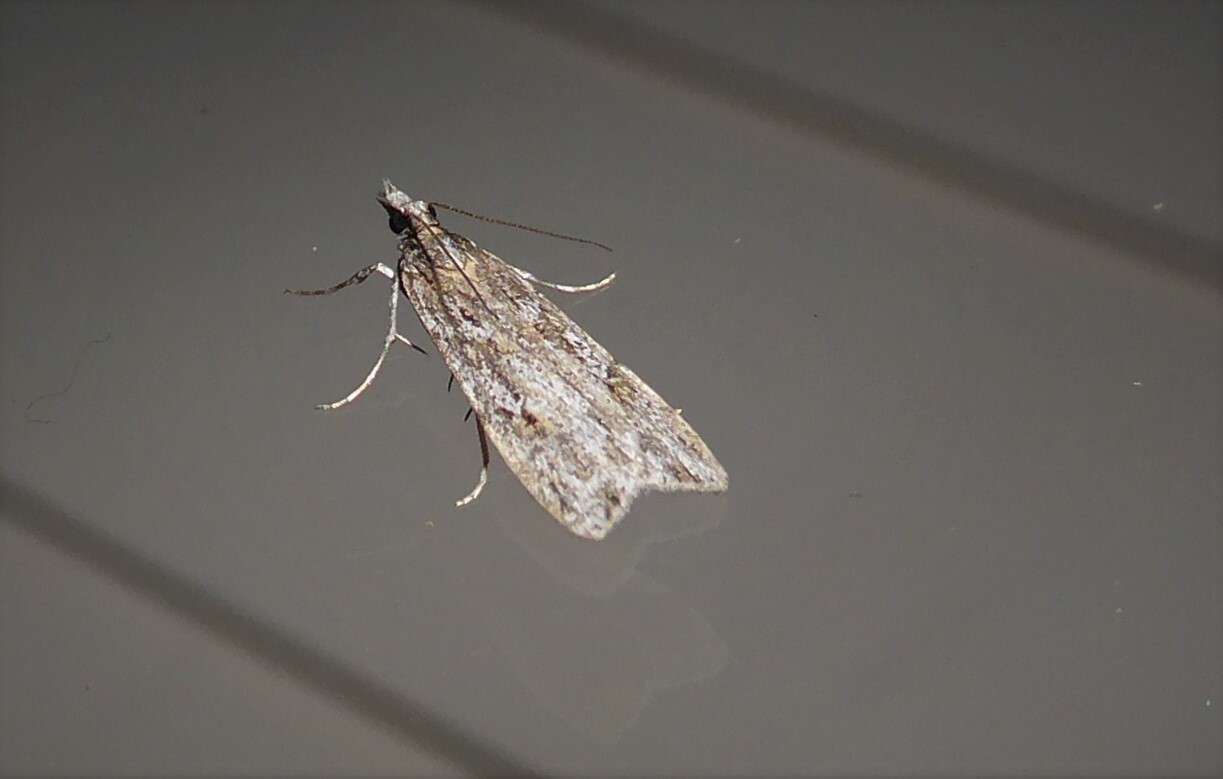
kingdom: Animalia
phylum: Arthropoda
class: Insecta
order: Lepidoptera
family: Crambidae
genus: Scoparia
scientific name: Scoparia chalicodes
